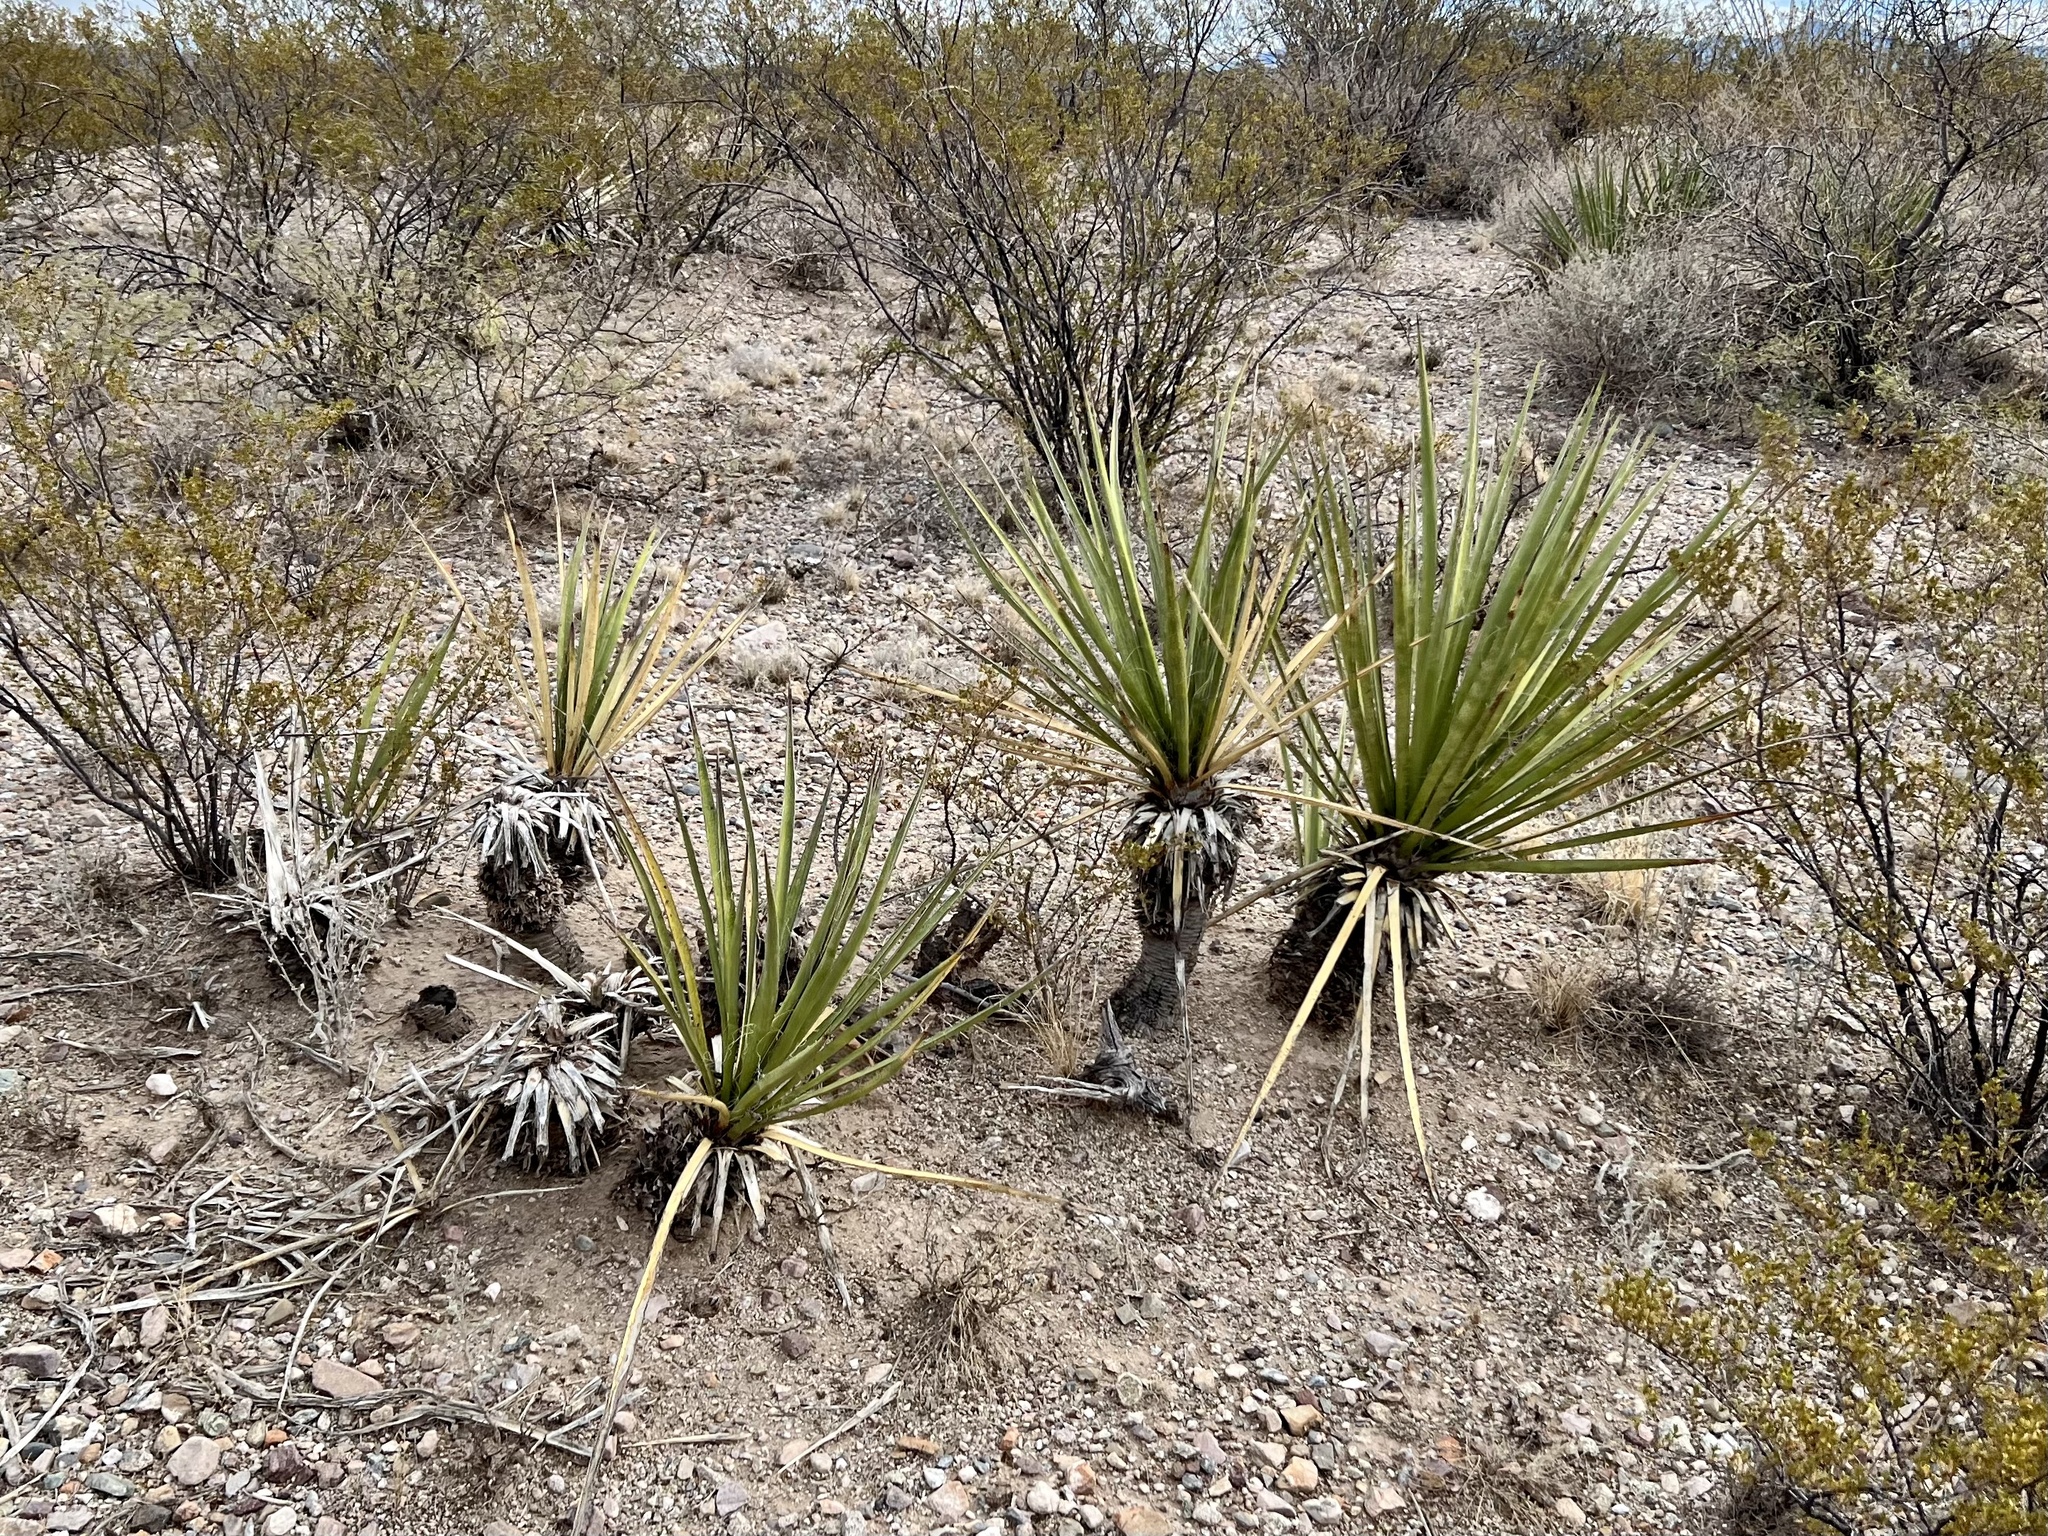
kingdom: Plantae
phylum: Tracheophyta
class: Liliopsida
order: Asparagales
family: Asparagaceae
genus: Yucca
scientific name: Yucca baccata
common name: Banana yucca
